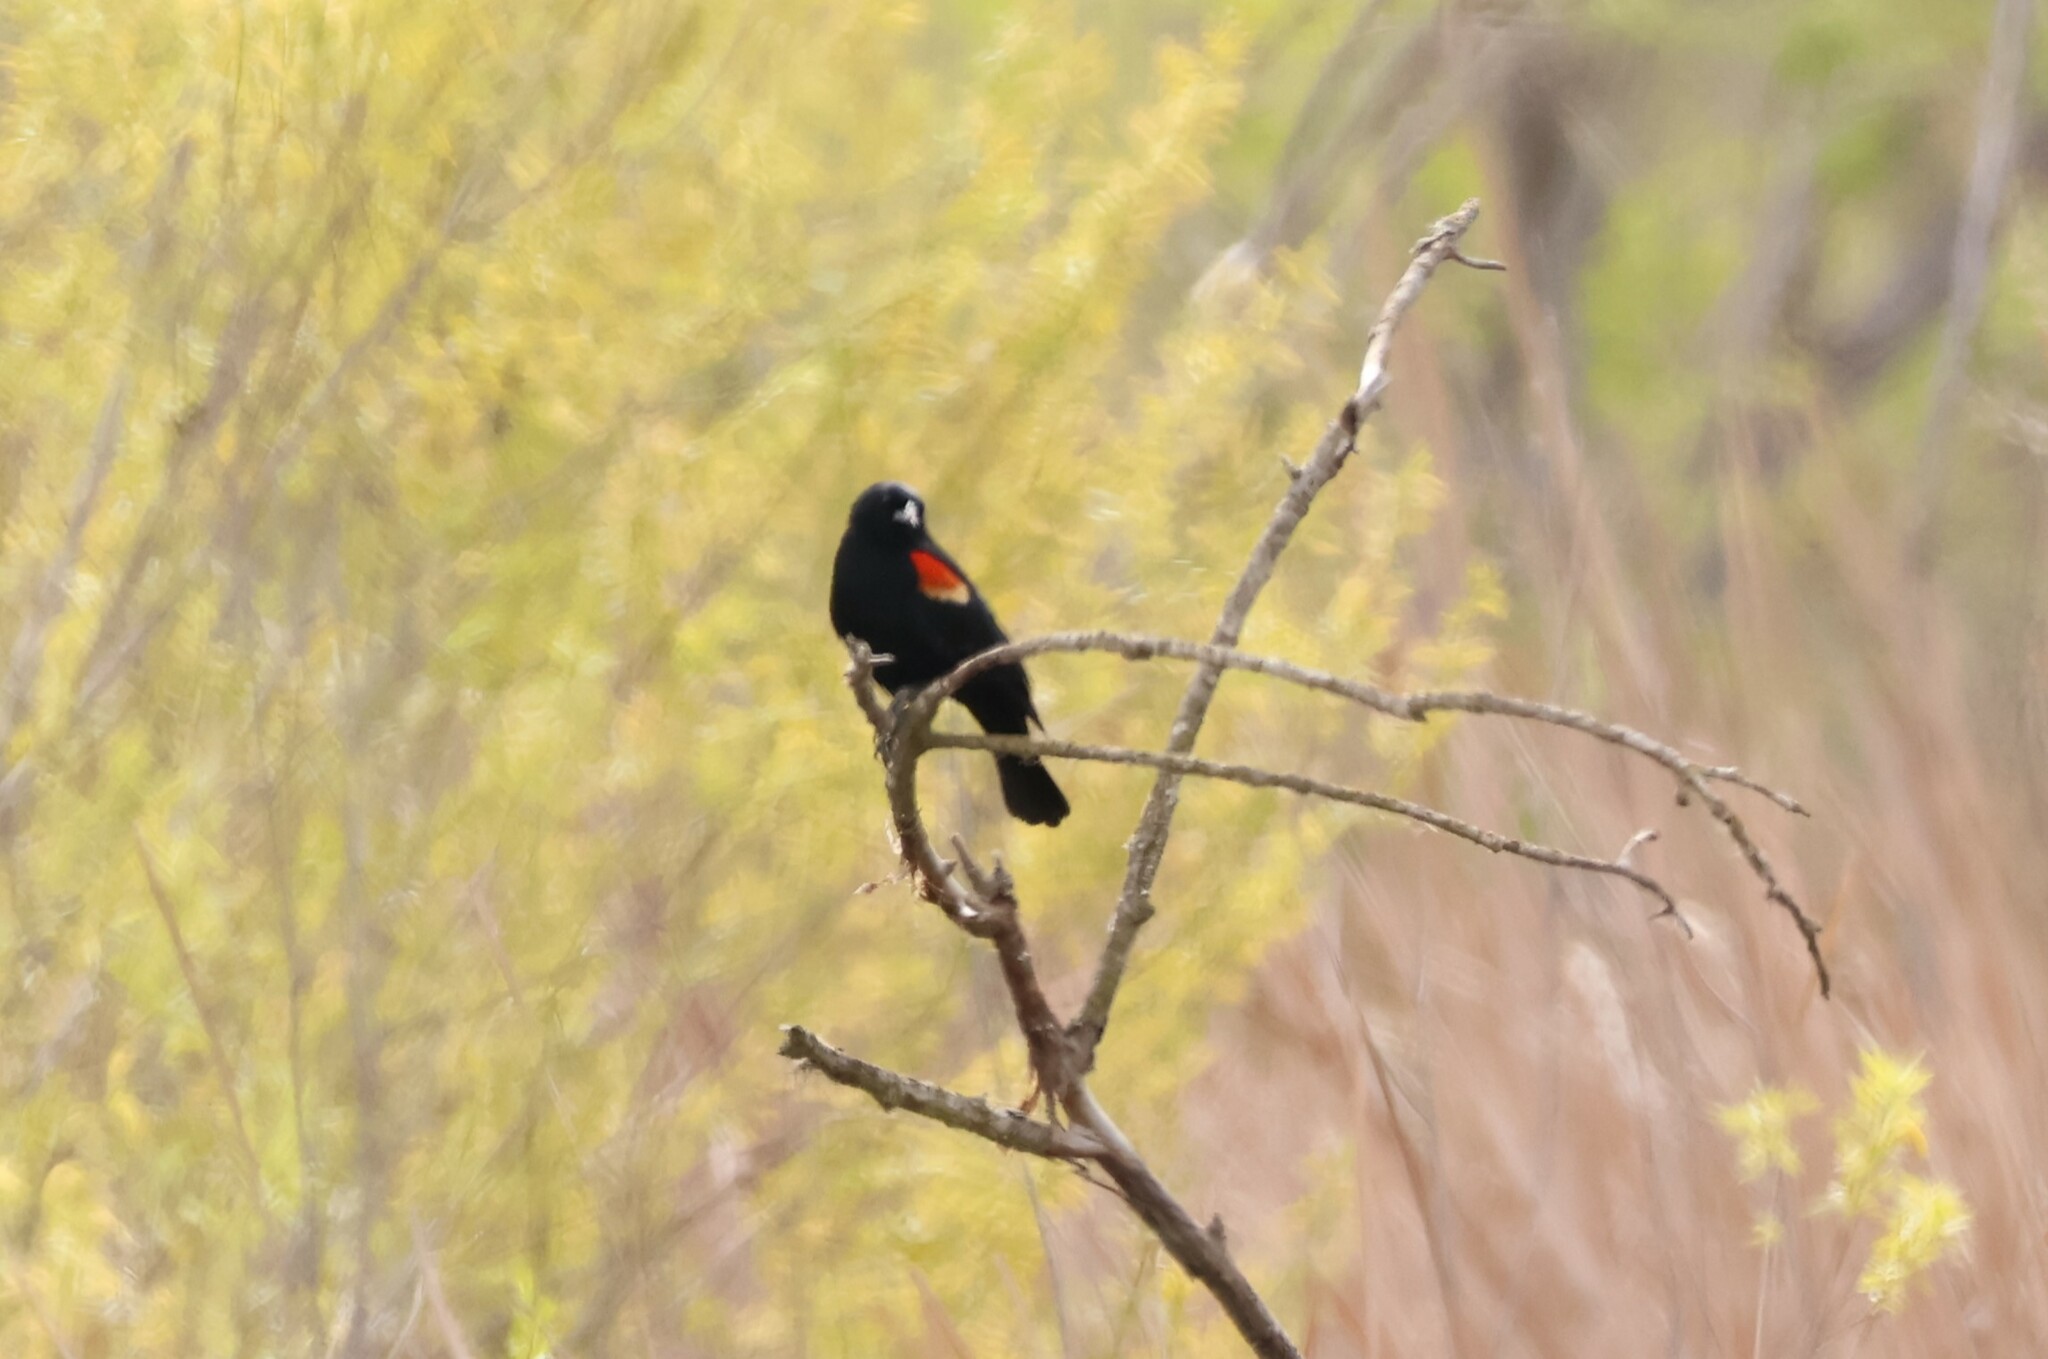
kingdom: Animalia
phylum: Chordata
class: Aves
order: Passeriformes
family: Icteridae
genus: Agelaius
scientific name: Agelaius phoeniceus
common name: Red-winged blackbird
